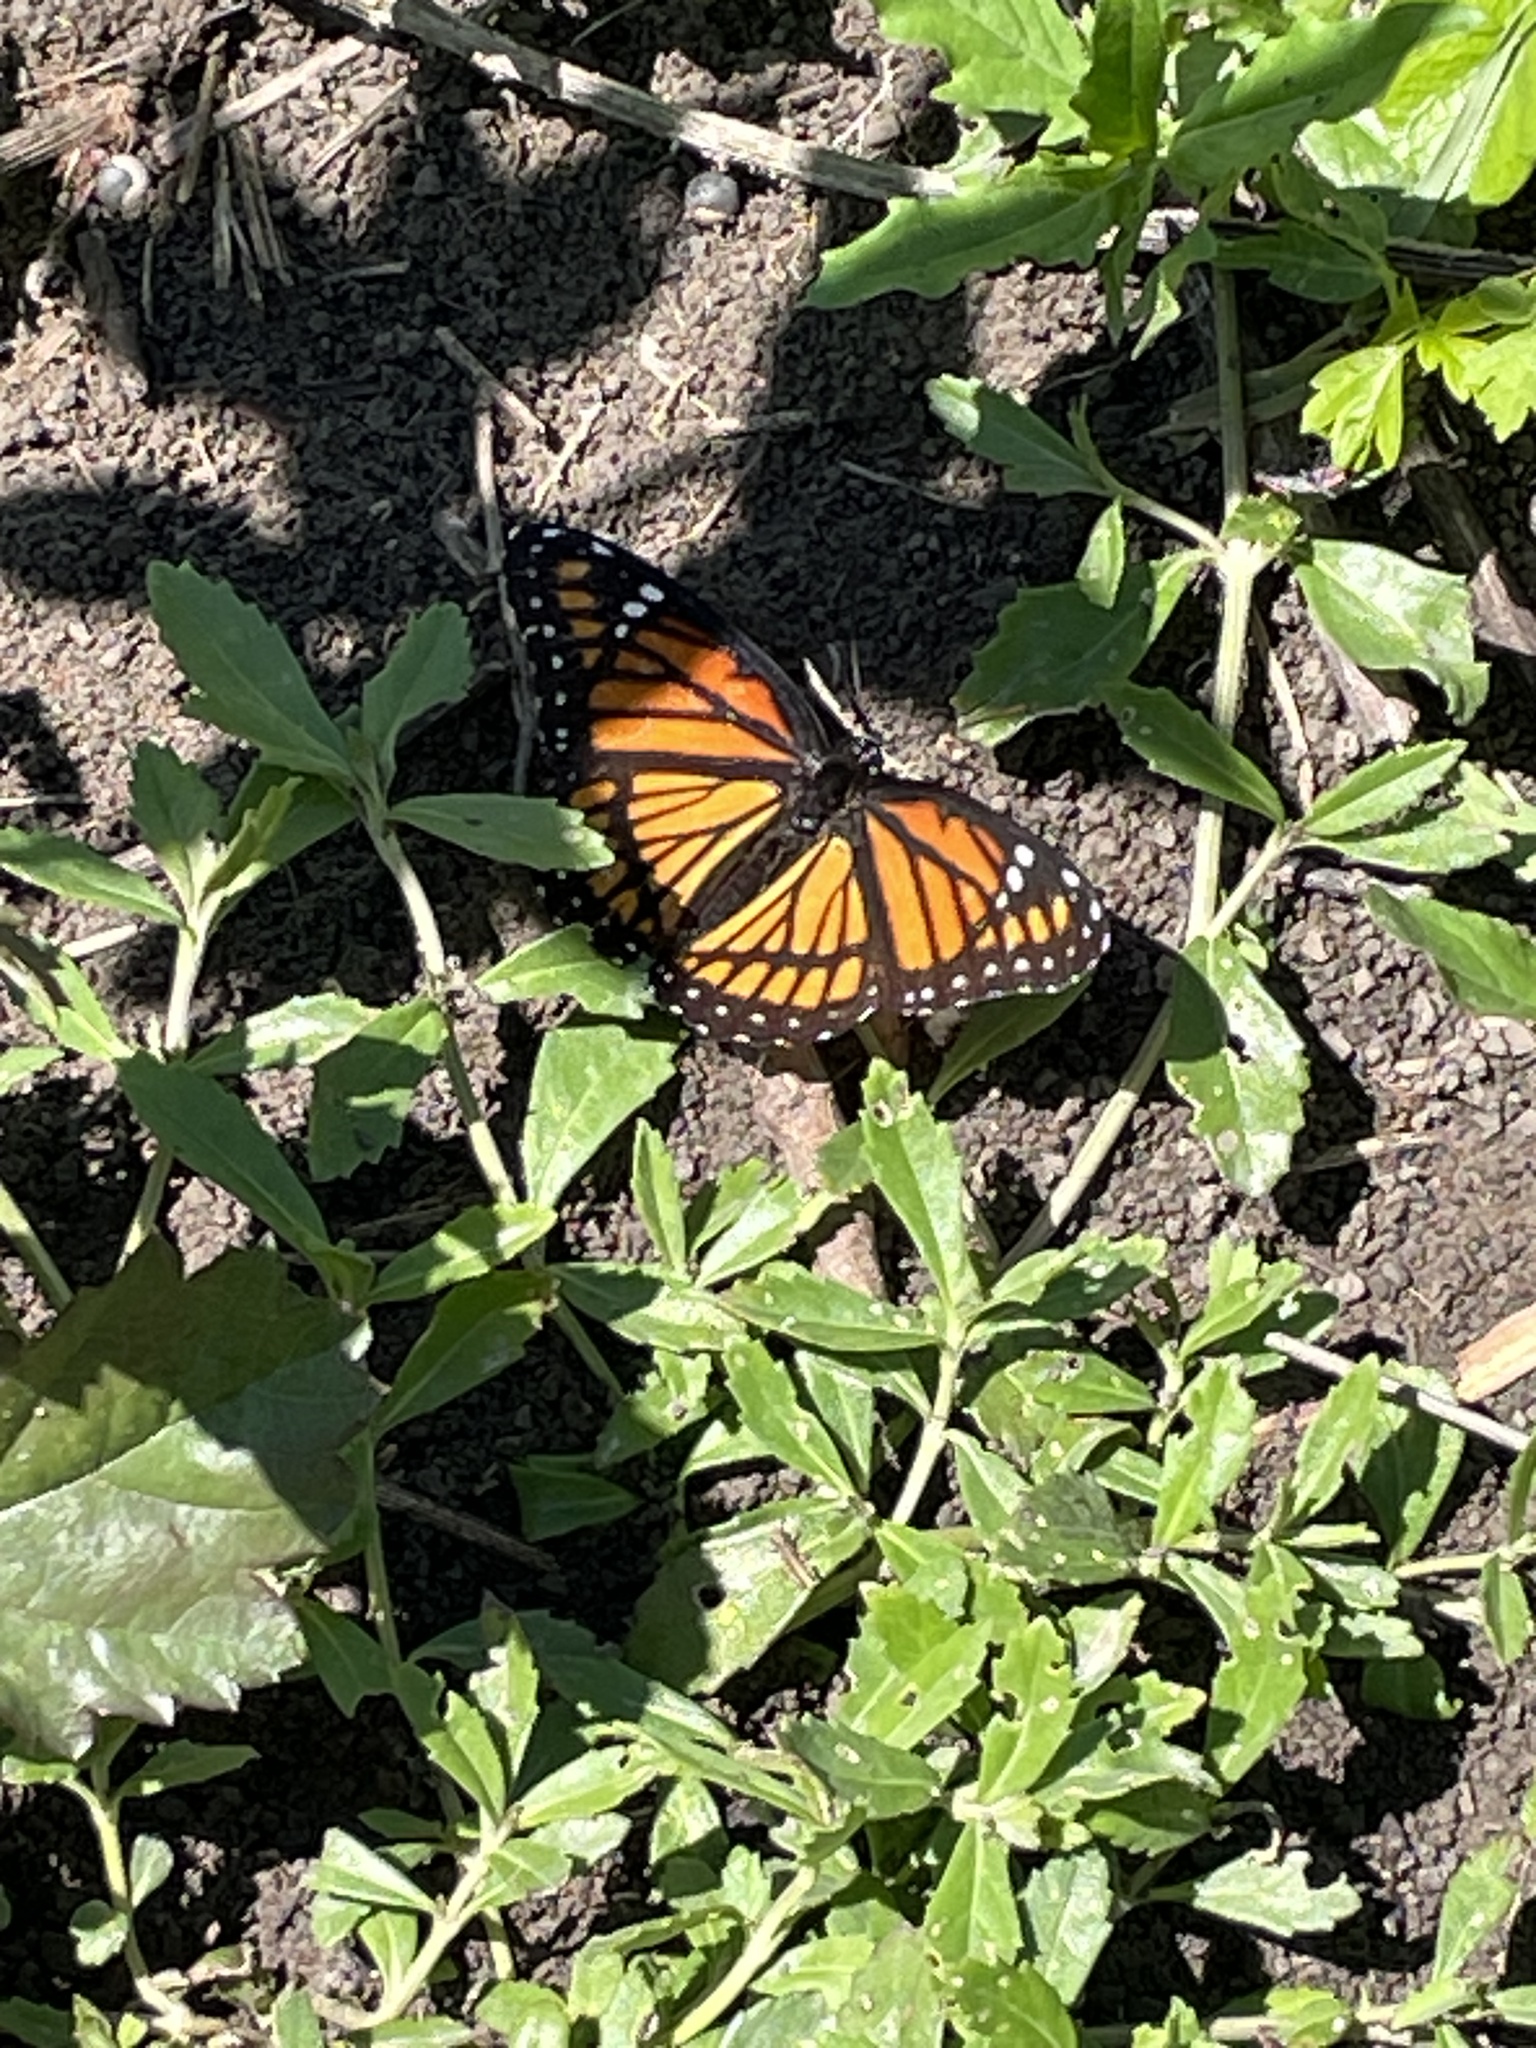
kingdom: Animalia
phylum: Arthropoda
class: Insecta
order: Lepidoptera
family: Nymphalidae
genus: Limenitis
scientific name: Limenitis archippus
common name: Viceroy
